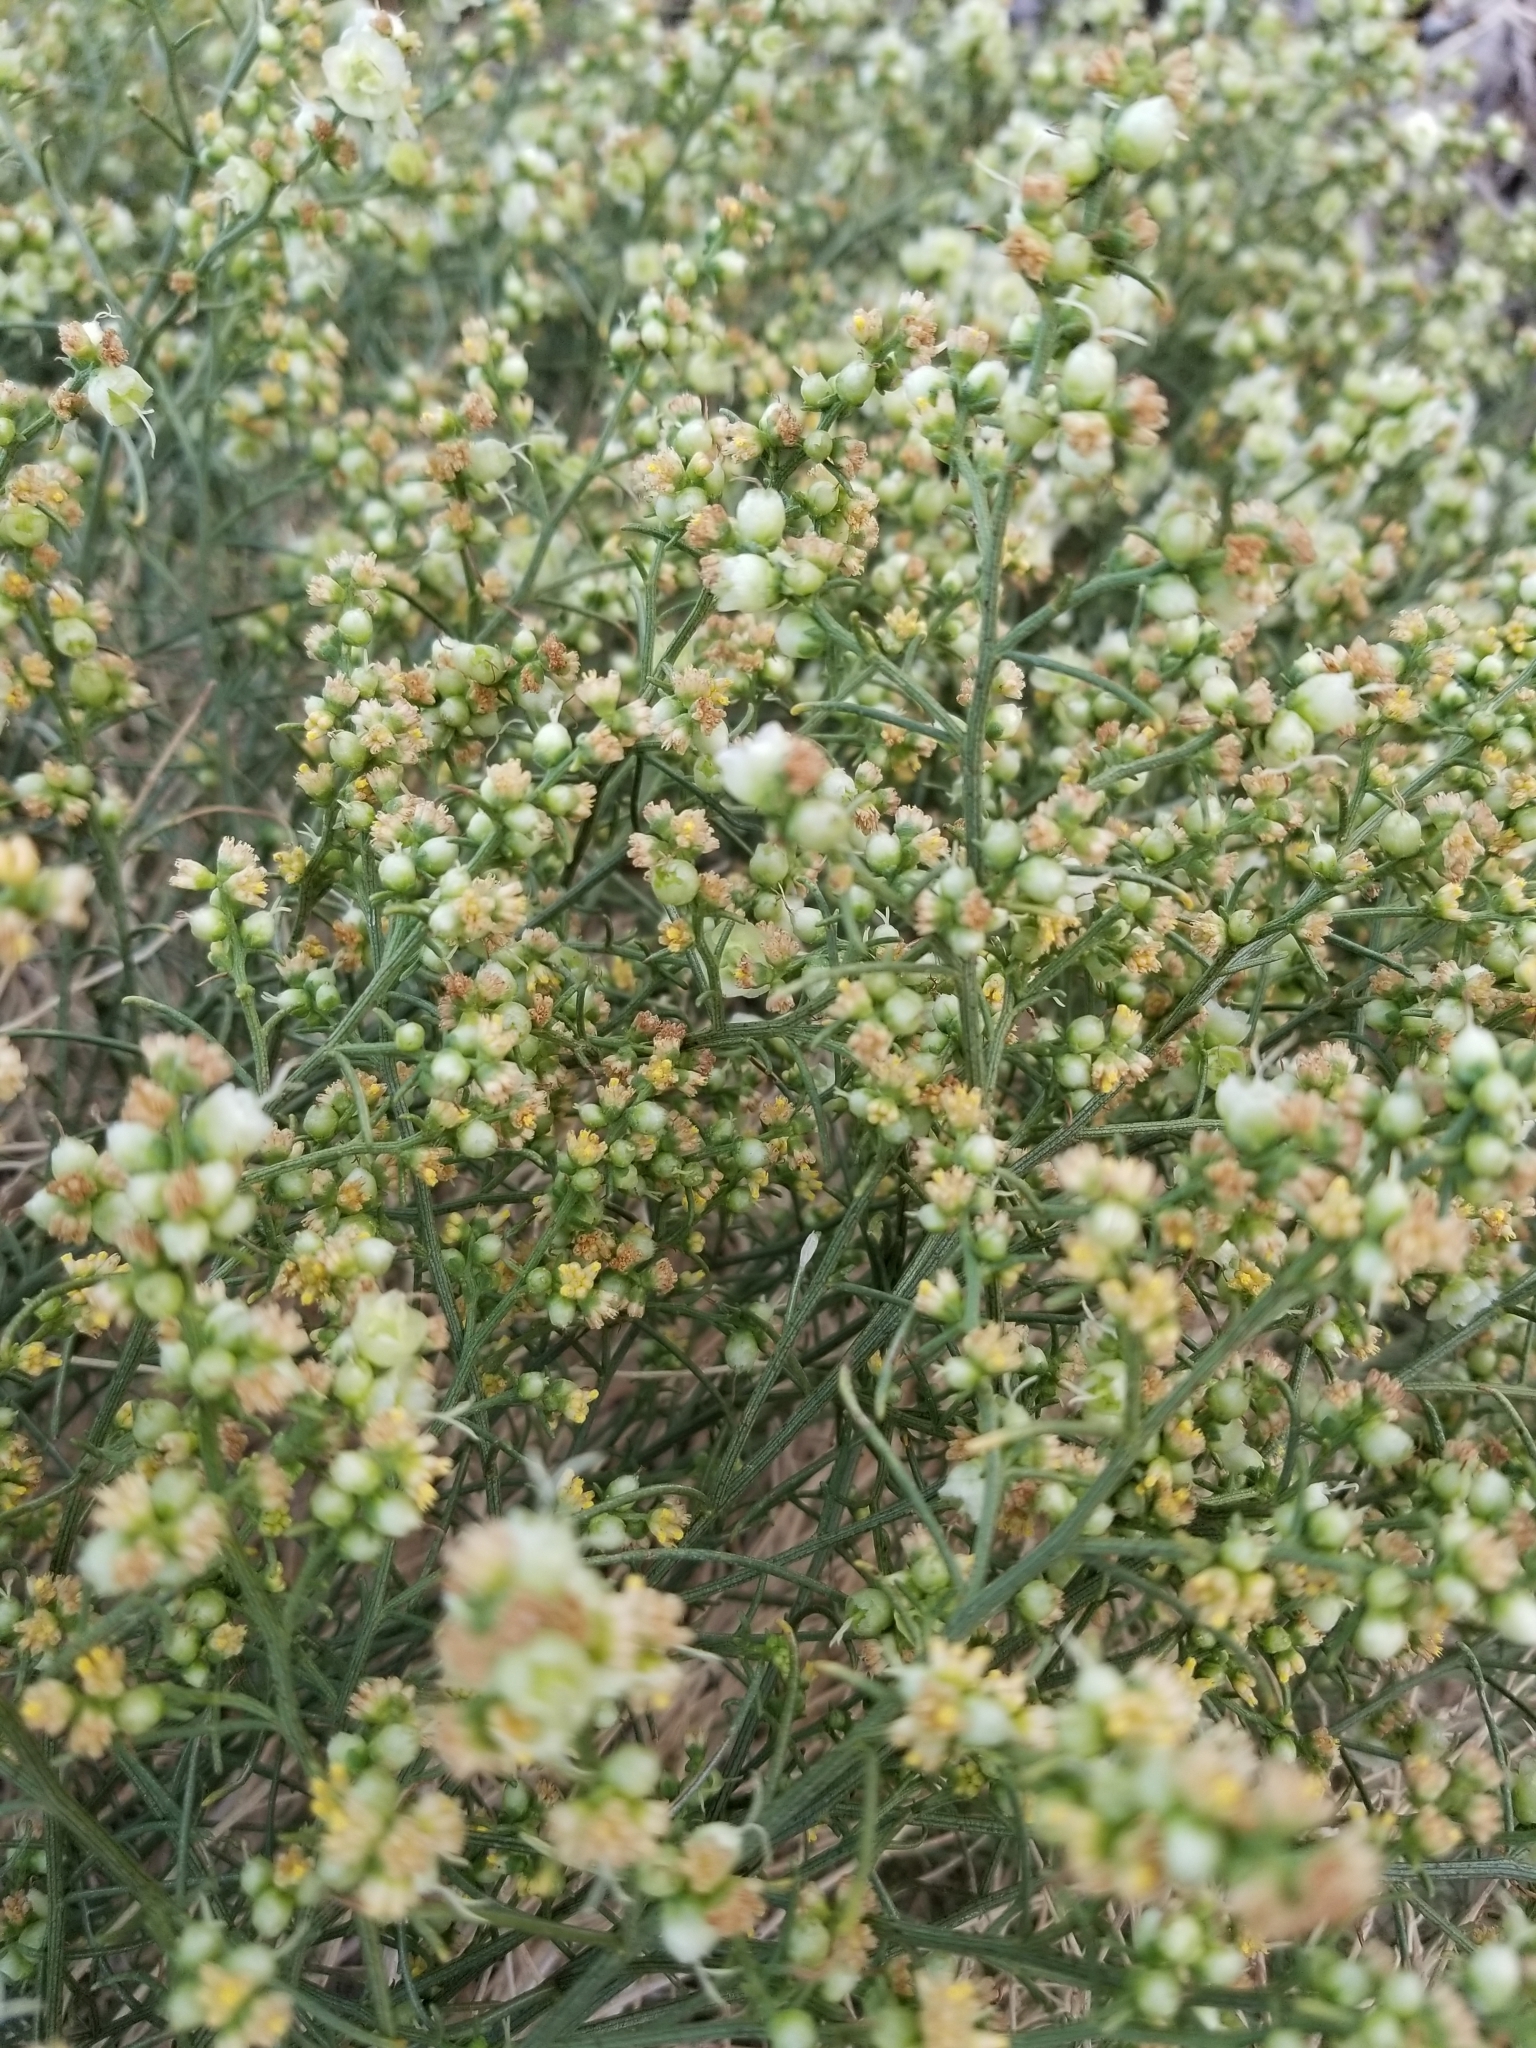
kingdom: Plantae
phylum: Tracheophyta
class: Magnoliopsida
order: Asterales
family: Asteraceae
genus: Ambrosia
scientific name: Ambrosia salsola
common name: Burrobrush
